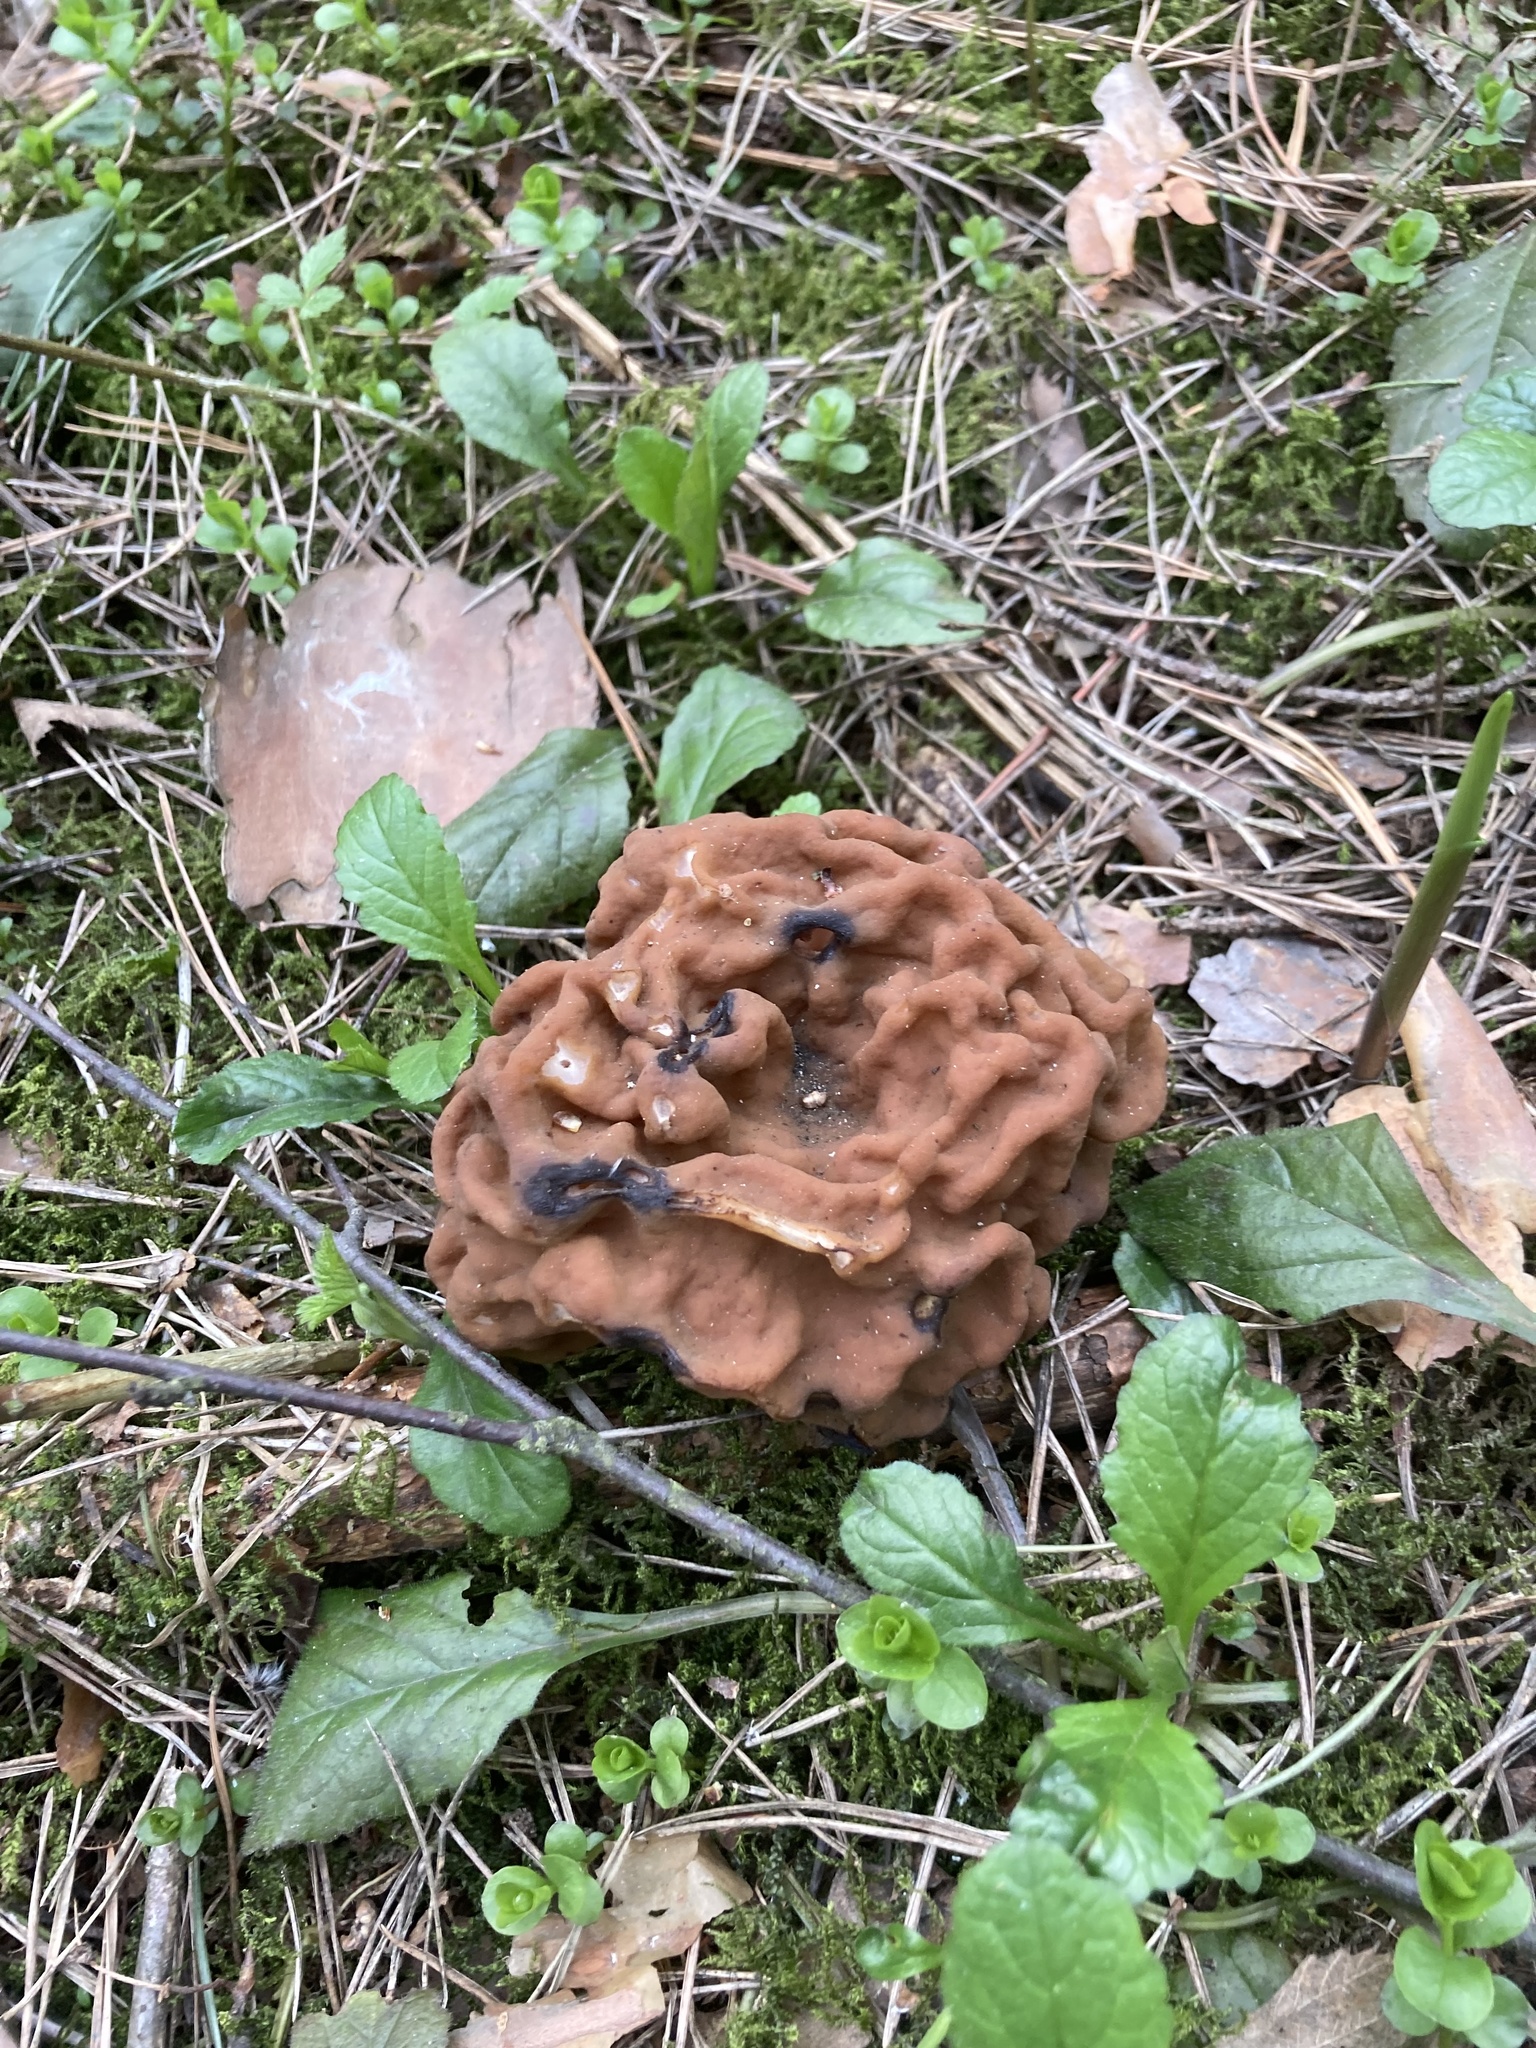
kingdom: Fungi
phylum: Ascomycota
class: Pezizomycetes
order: Pezizales
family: Discinaceae
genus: Gyromitra
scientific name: Gyromitra gigas
